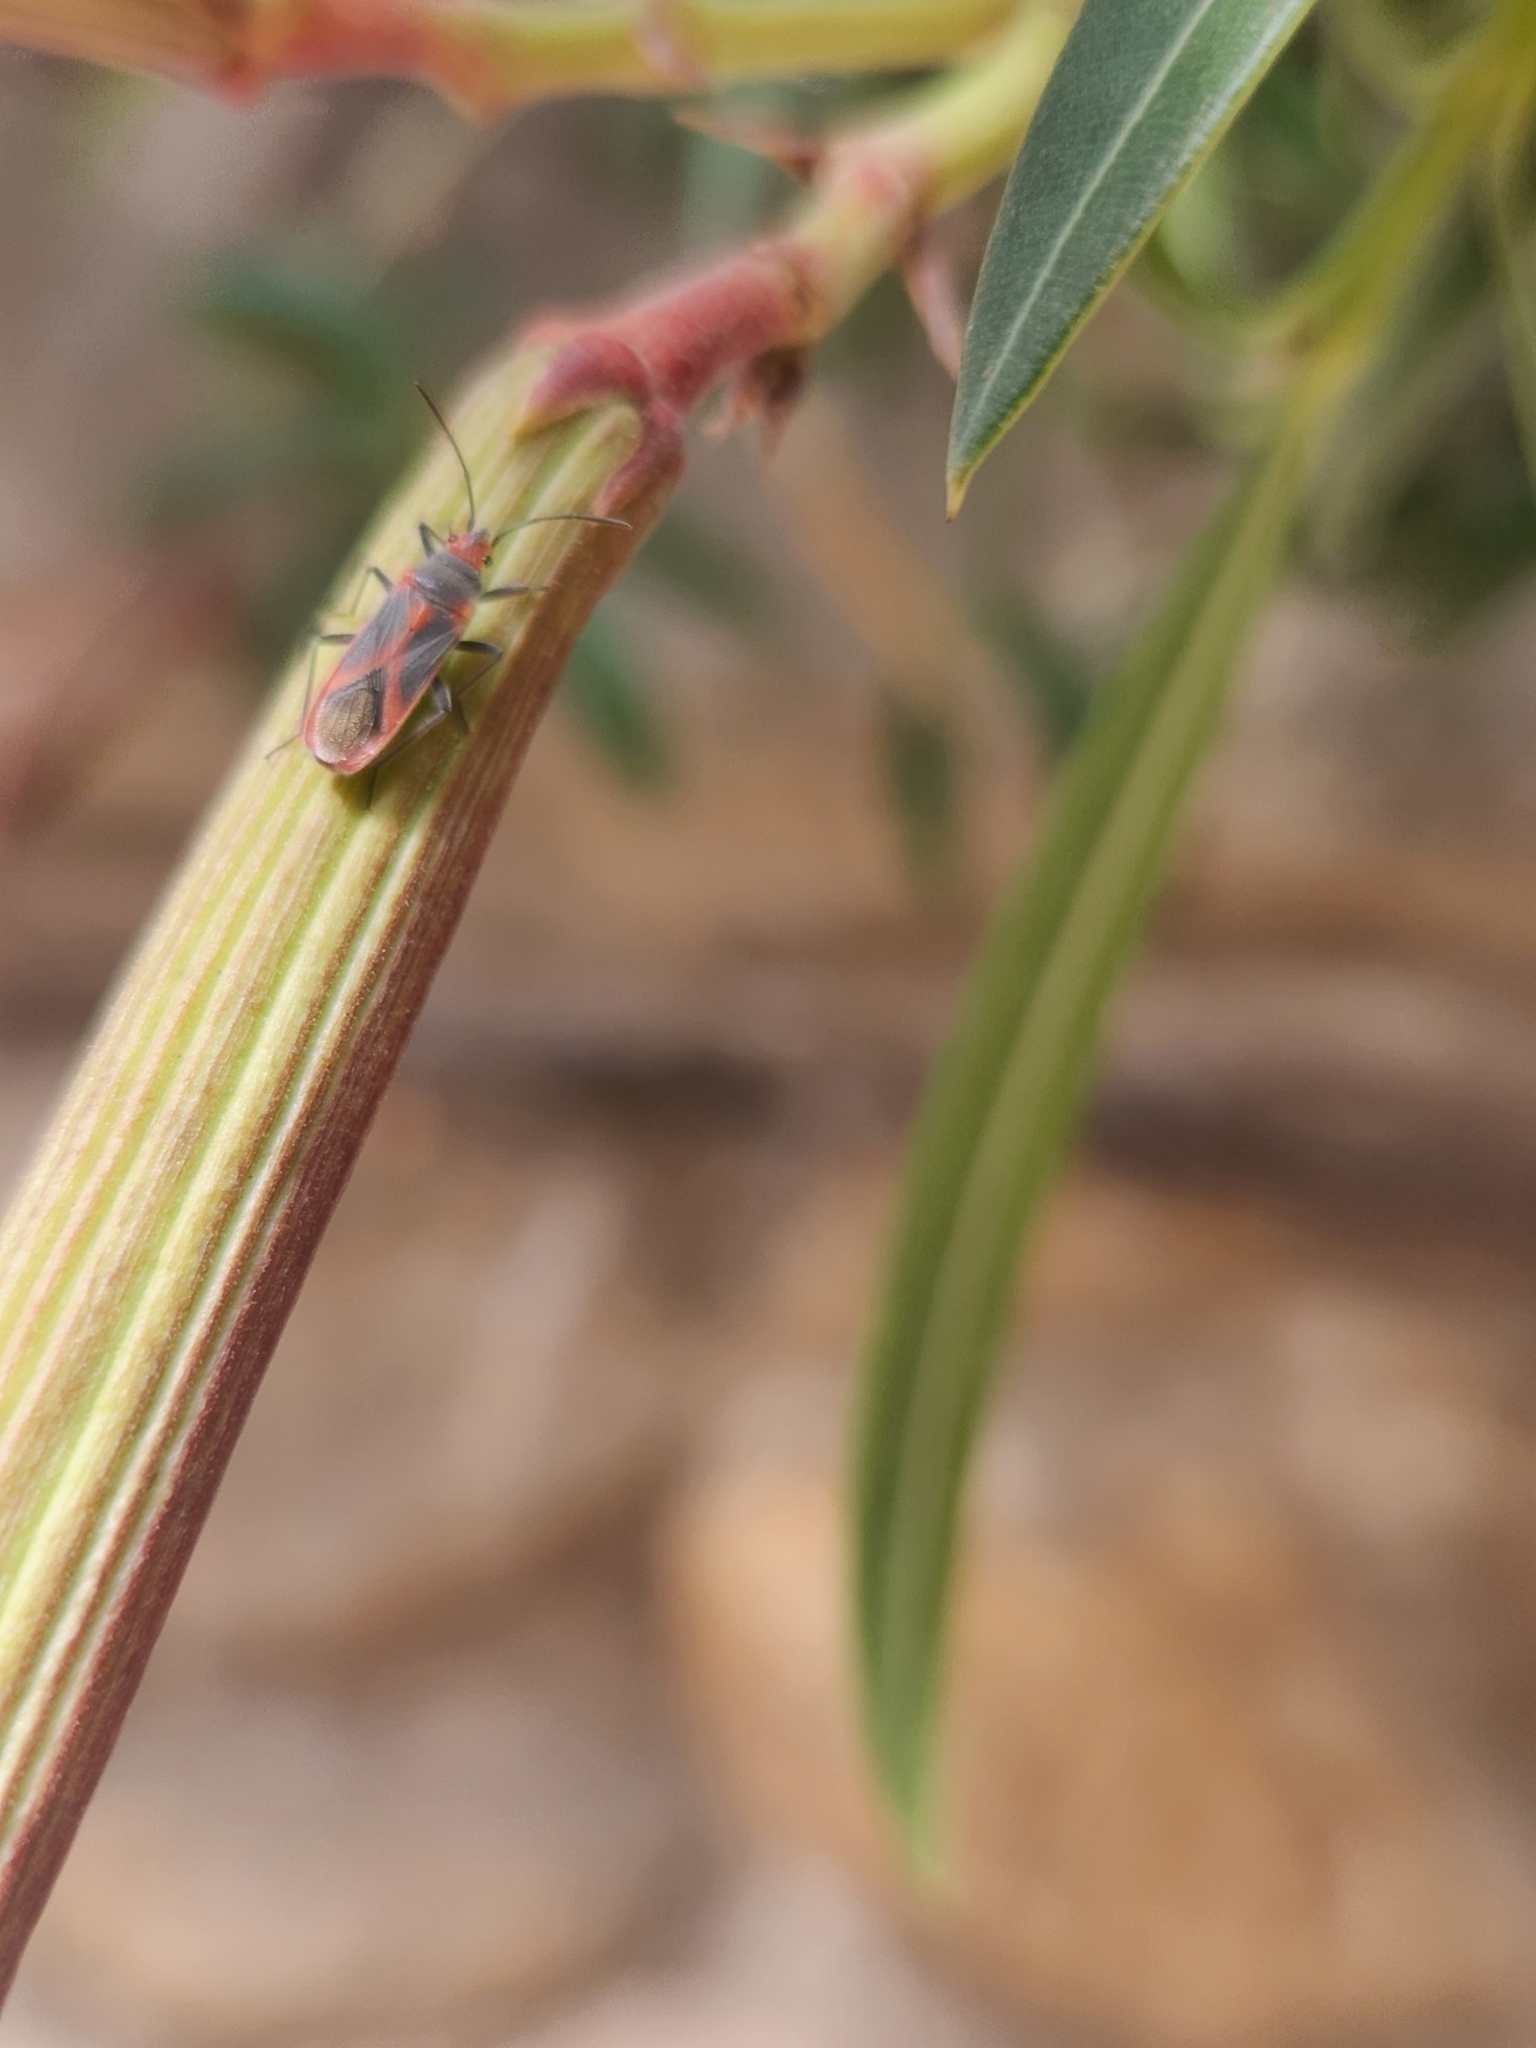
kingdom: Animalia
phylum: Arthropoda
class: Insecta
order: Hemiptera
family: Lygaeidae
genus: Caenocoris
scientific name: Caenocoris nerii
